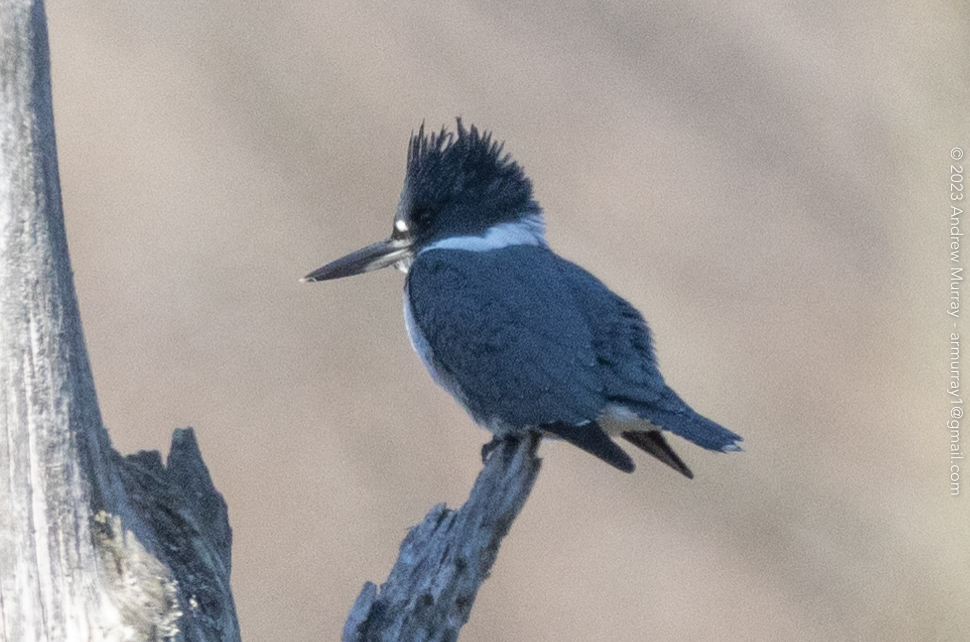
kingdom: Animalia
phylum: Chordata
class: Aves
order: Coraciiformes
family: Alcedinidae
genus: Megaceryle
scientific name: Megaceryle alcyon
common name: Belted kingfisher
